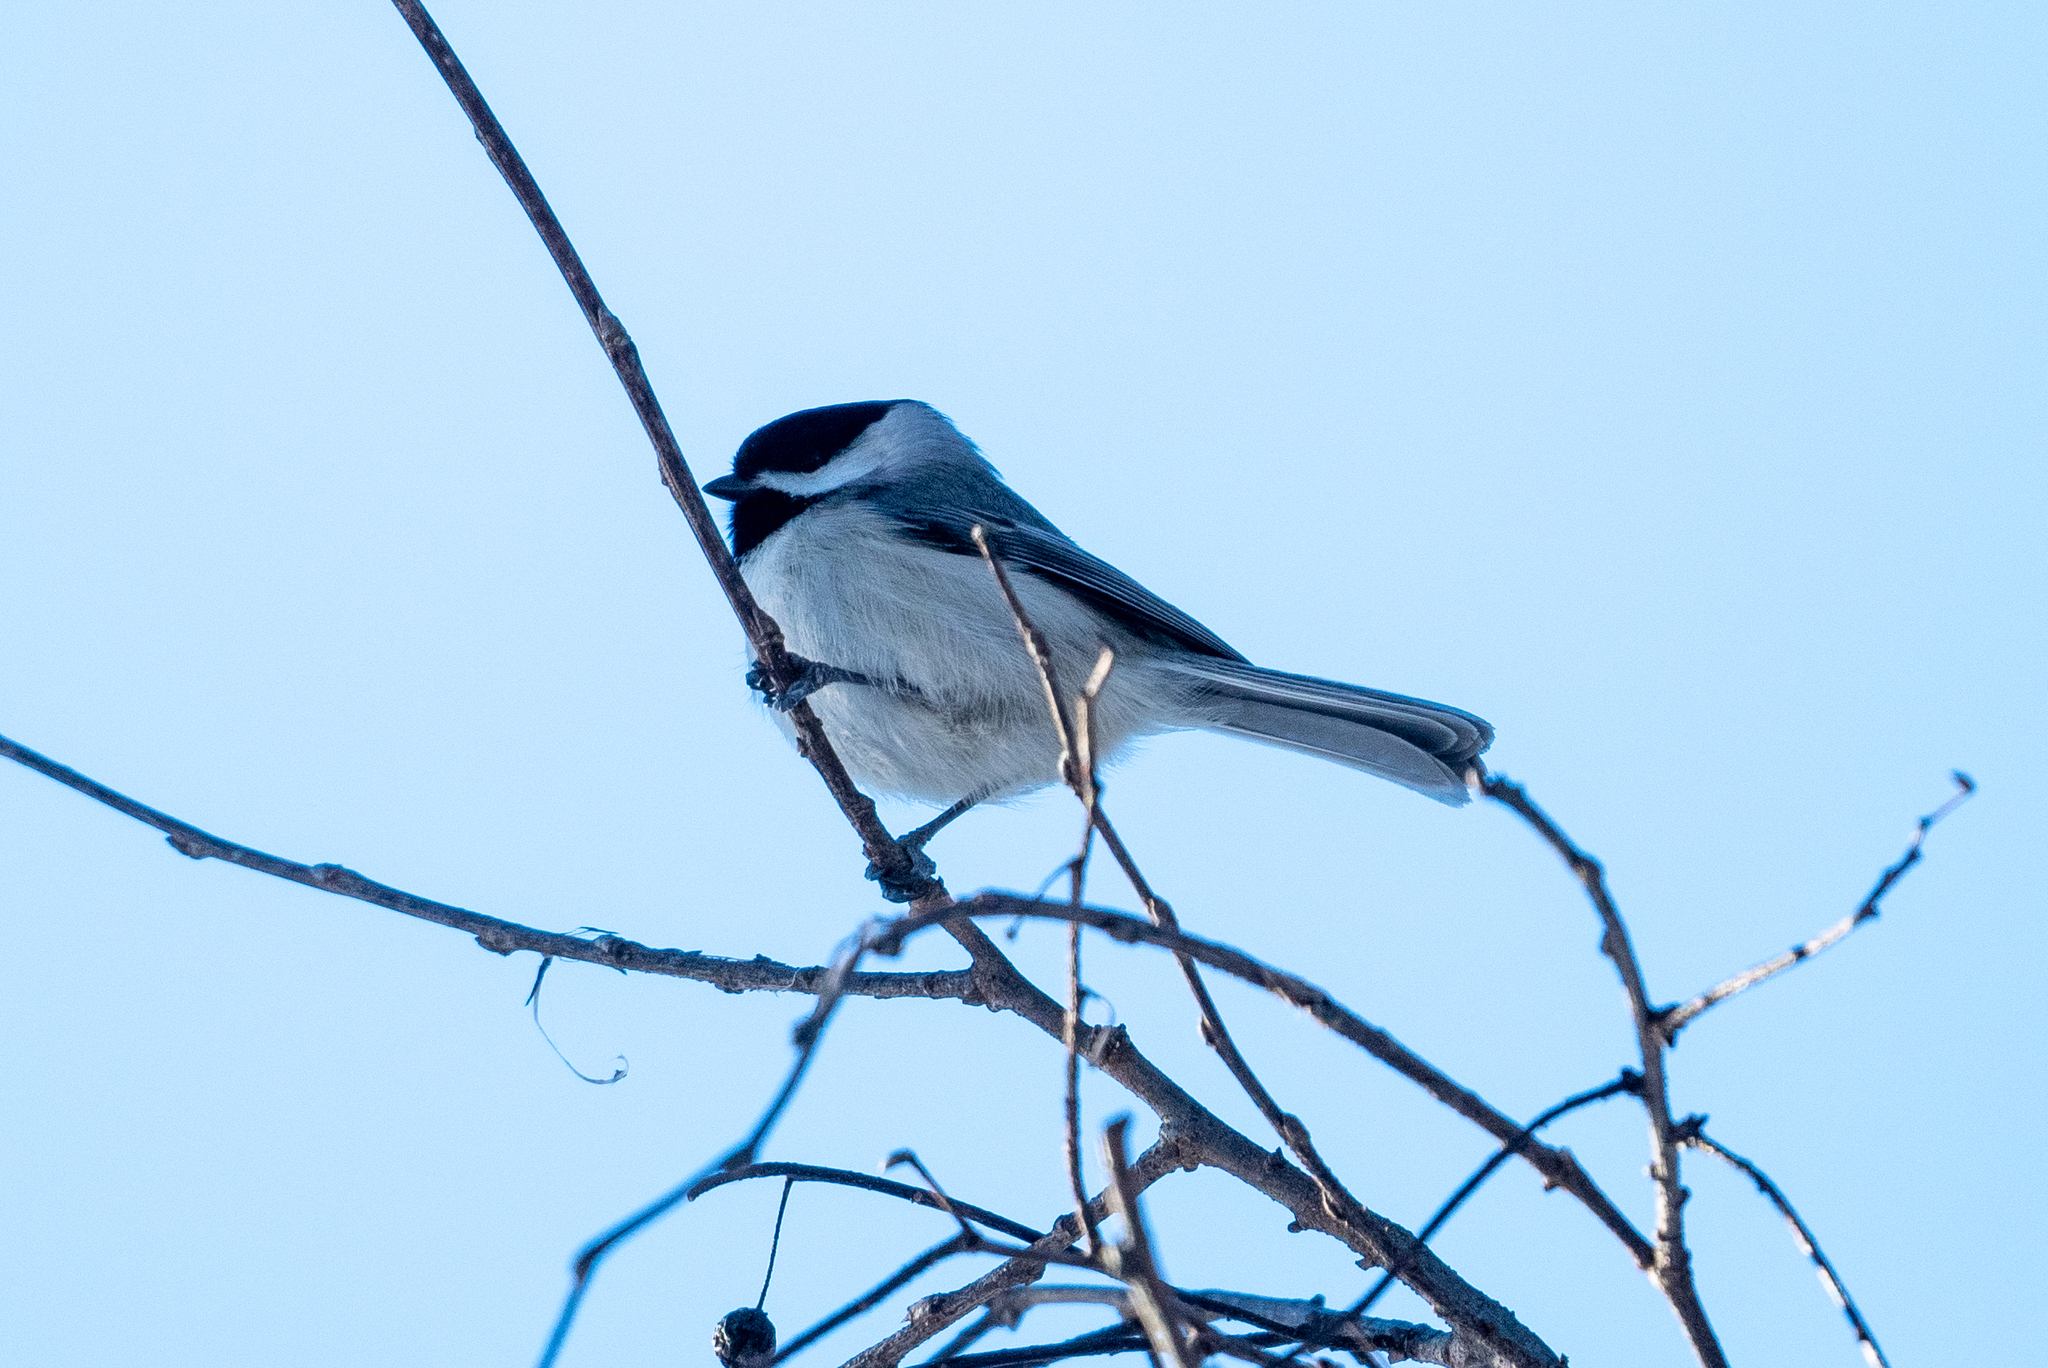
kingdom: Animalia
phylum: Chordata
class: Aves
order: Passeriformes
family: Paridae
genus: Poecile
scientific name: Poecile carolinensis
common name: Carolina chickadee
